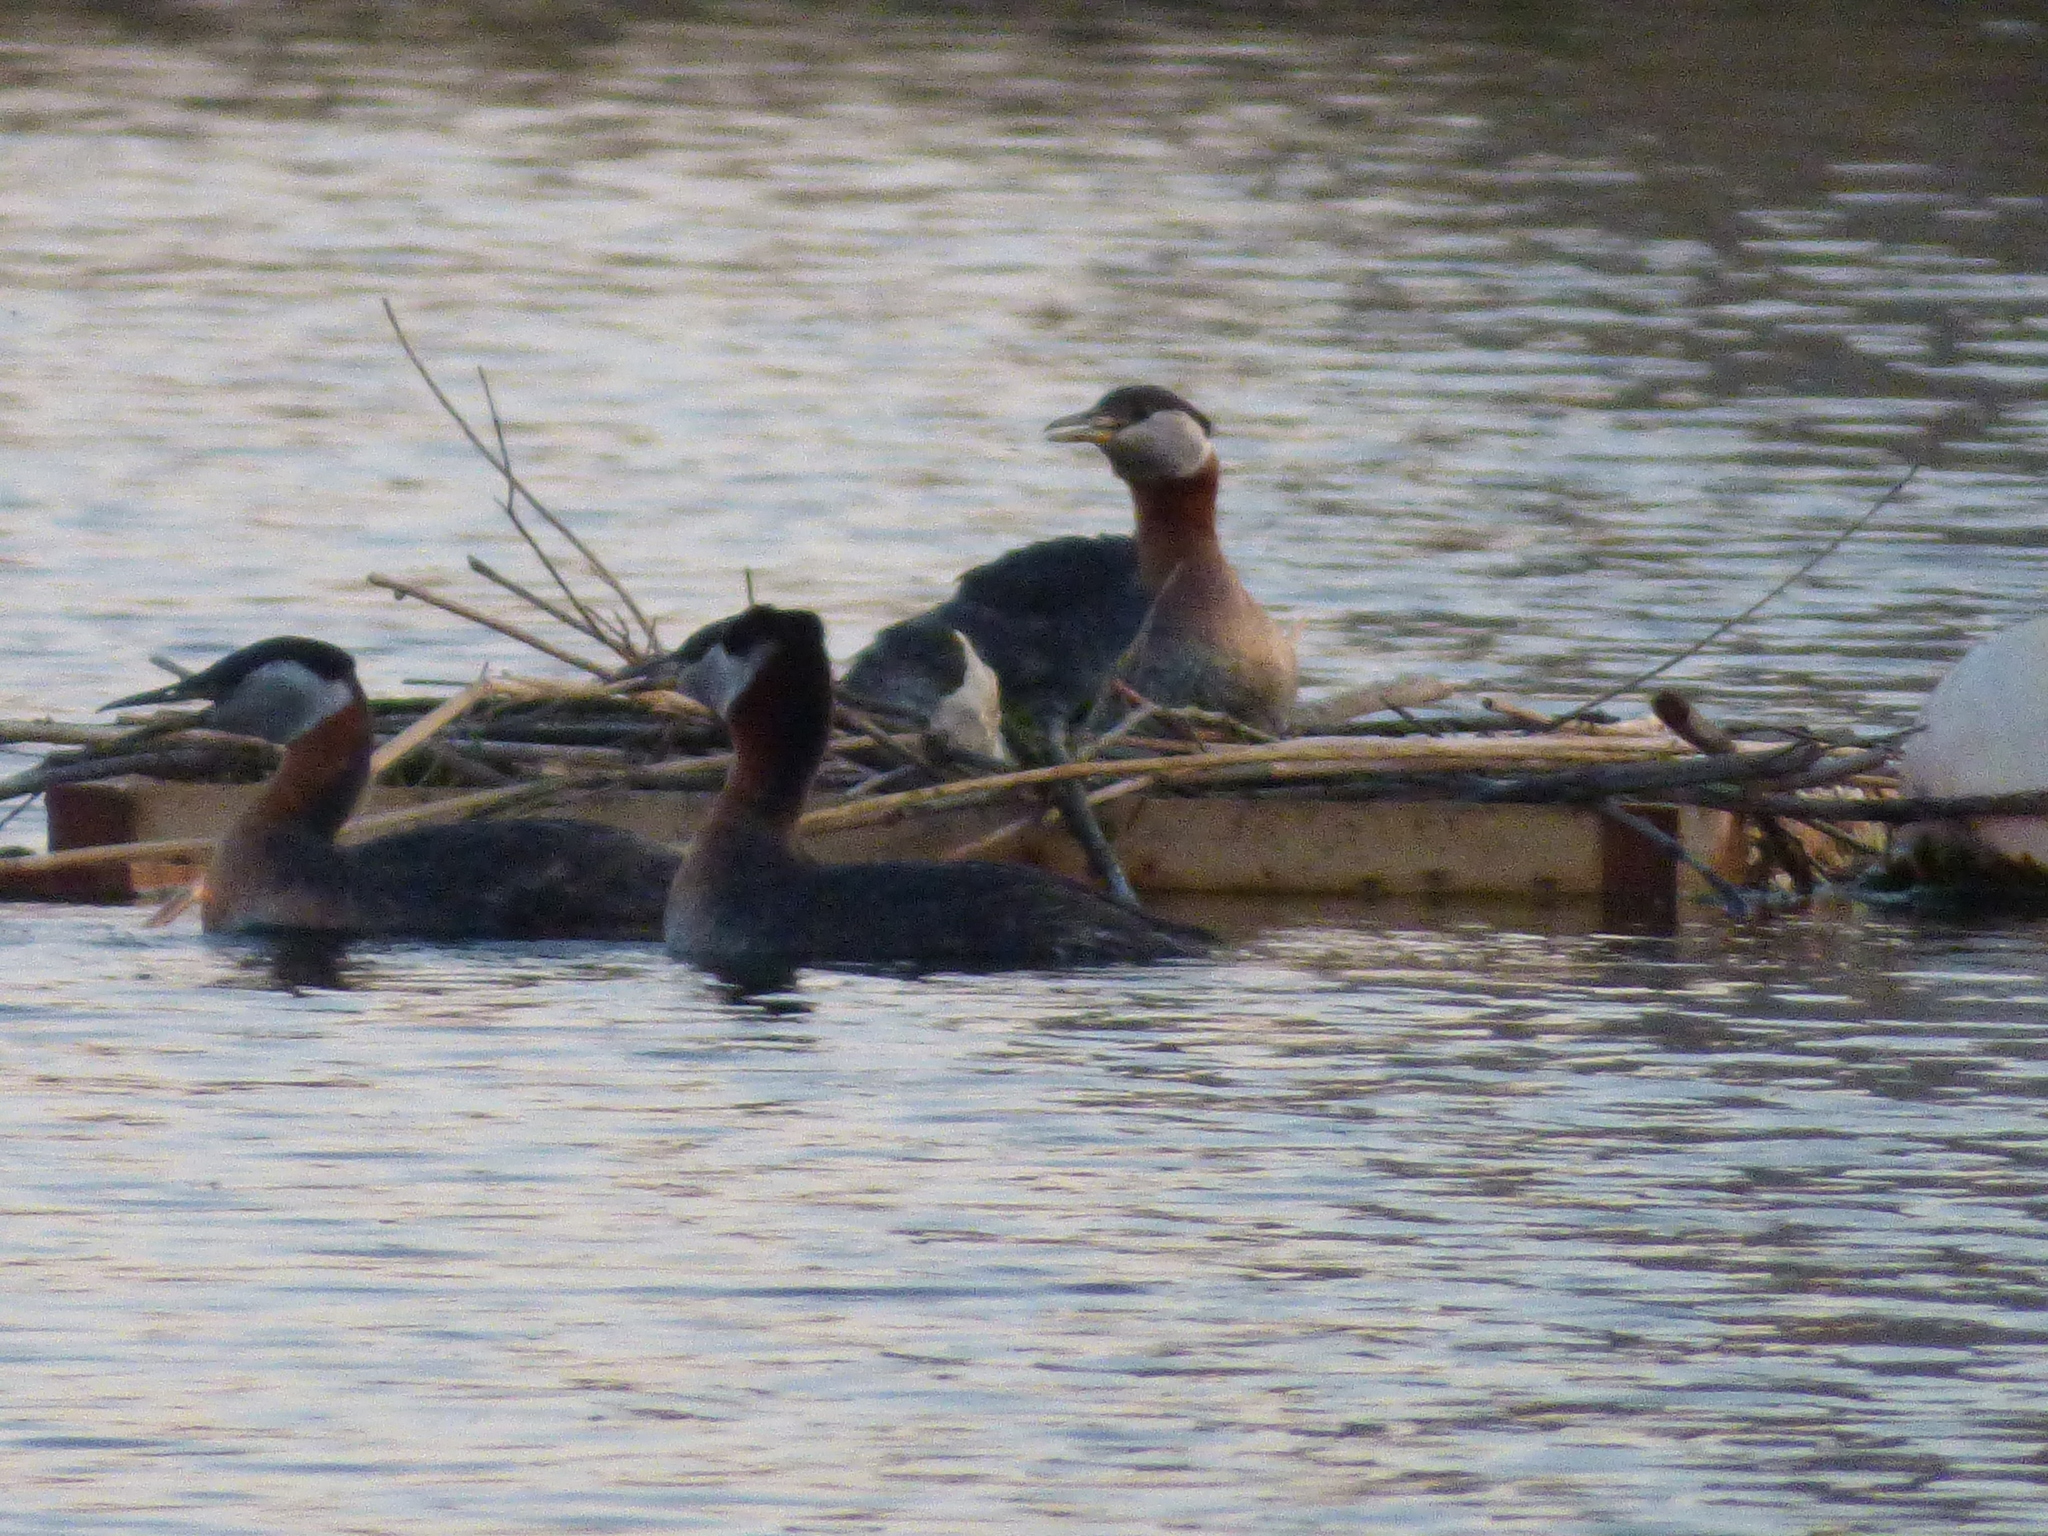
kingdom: Animalia
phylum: Chordata
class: Aves
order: Podicipediformes
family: Podicipedidae
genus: Podiceps
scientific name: Podiceps grisegena
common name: Red-necked grebe
